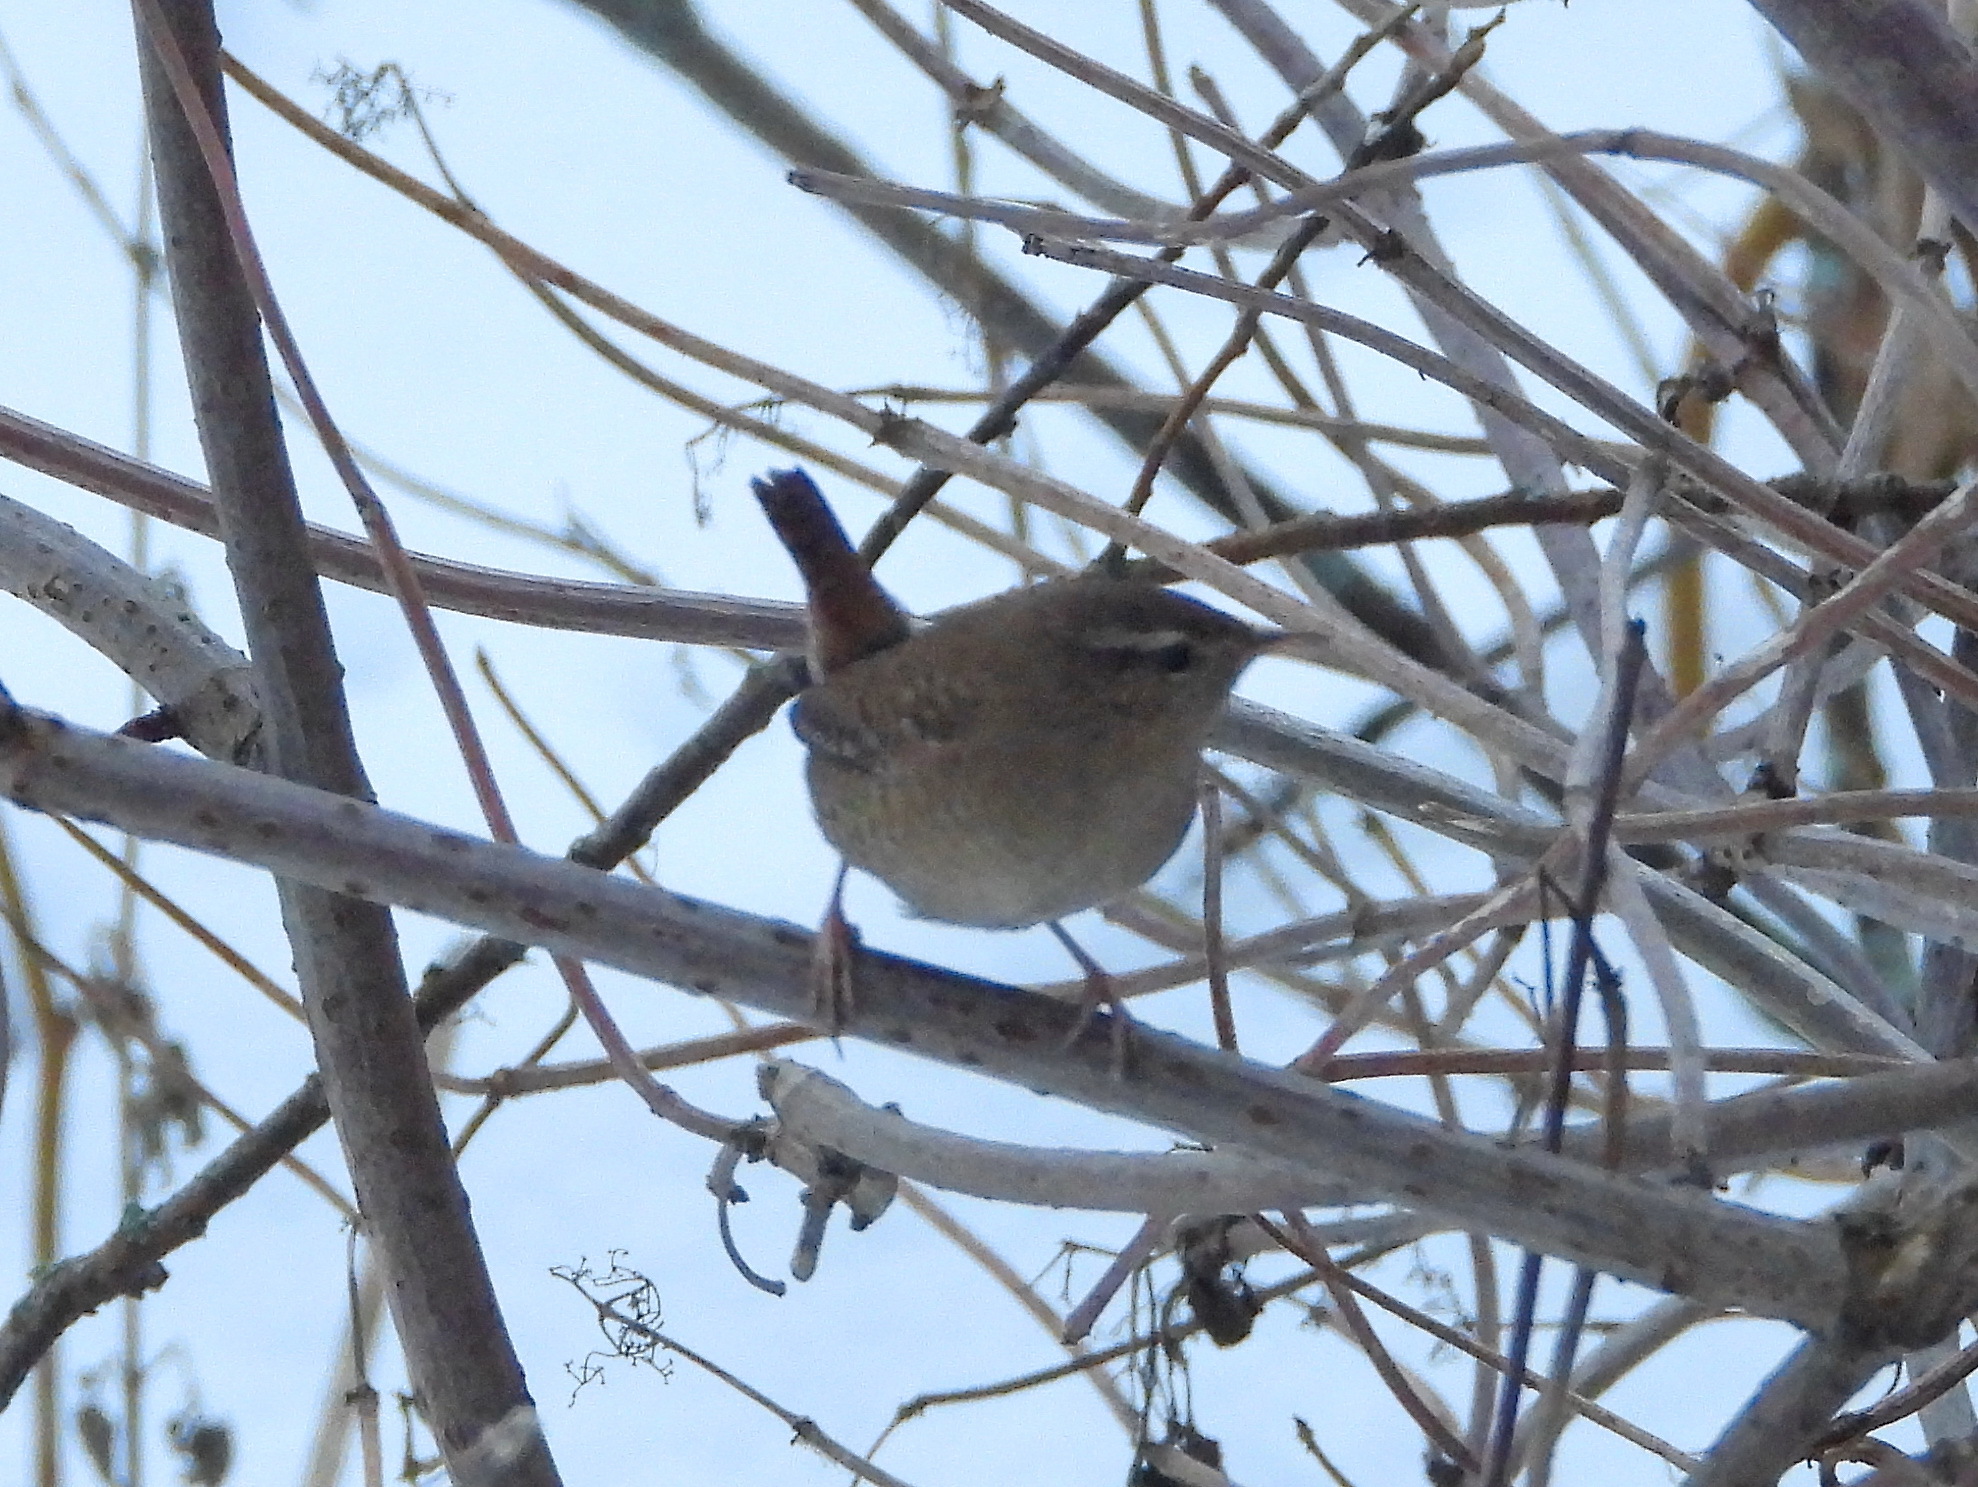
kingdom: Animalia
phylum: Chordata
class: Aves
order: Passeriformes
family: Troglodytidae
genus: Troglodytes
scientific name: Troglodytes troglodytes
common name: Eurasian wren
